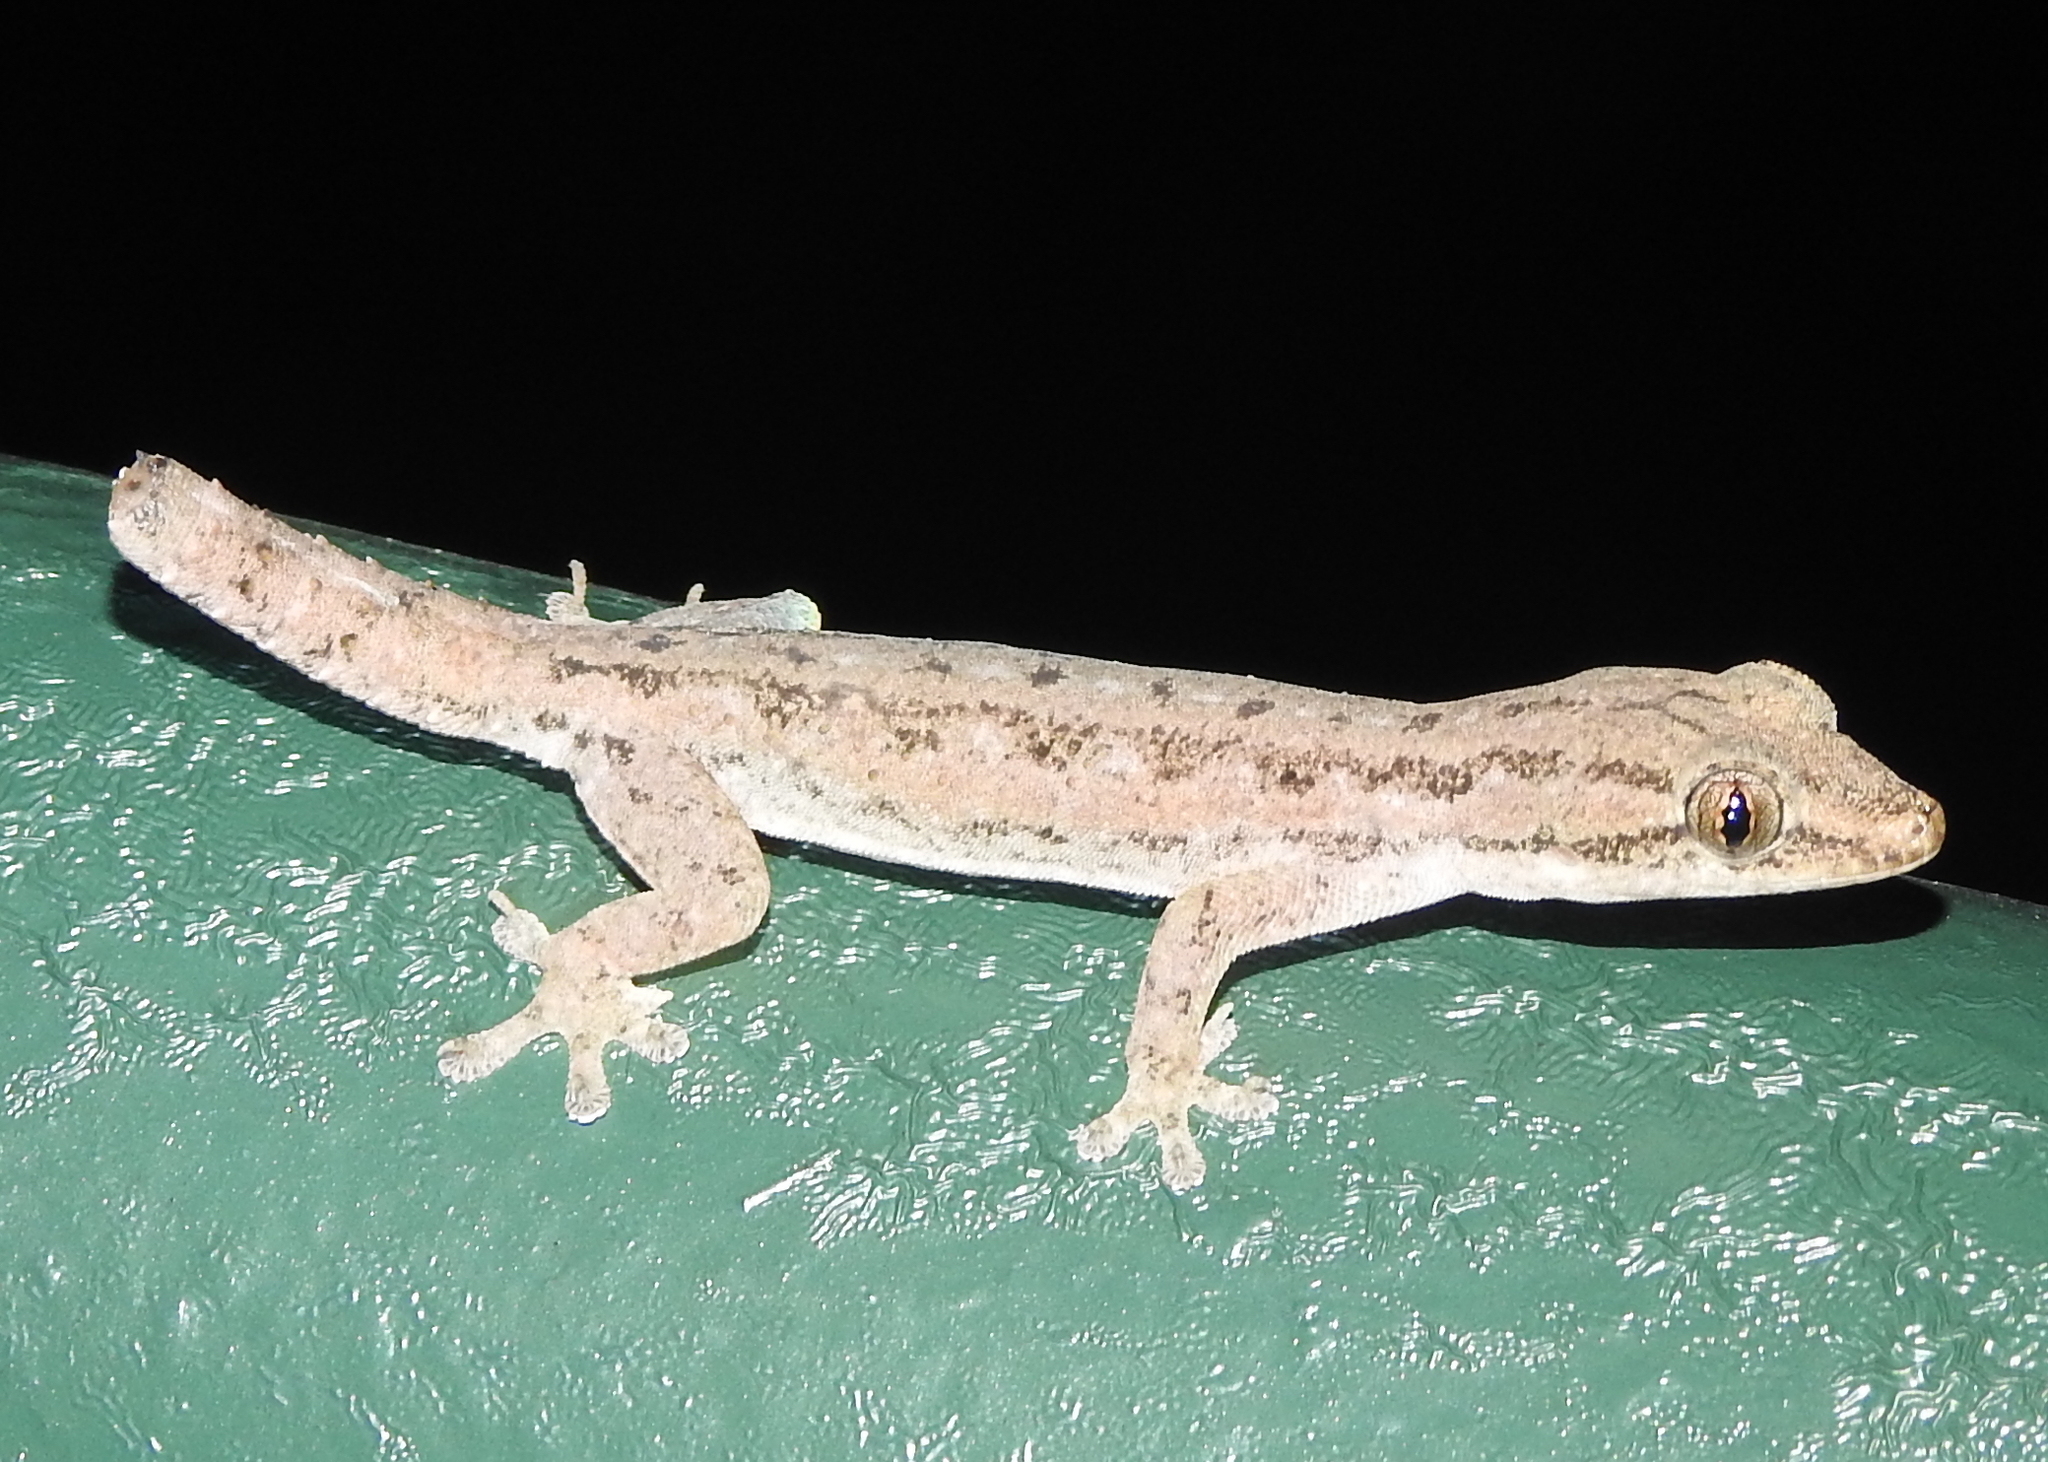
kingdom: Animalia
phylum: Chordata
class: Squamata
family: Gekkonidae
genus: Hemidactylus
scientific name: Hemidactylus frenatus
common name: Common house gecko
